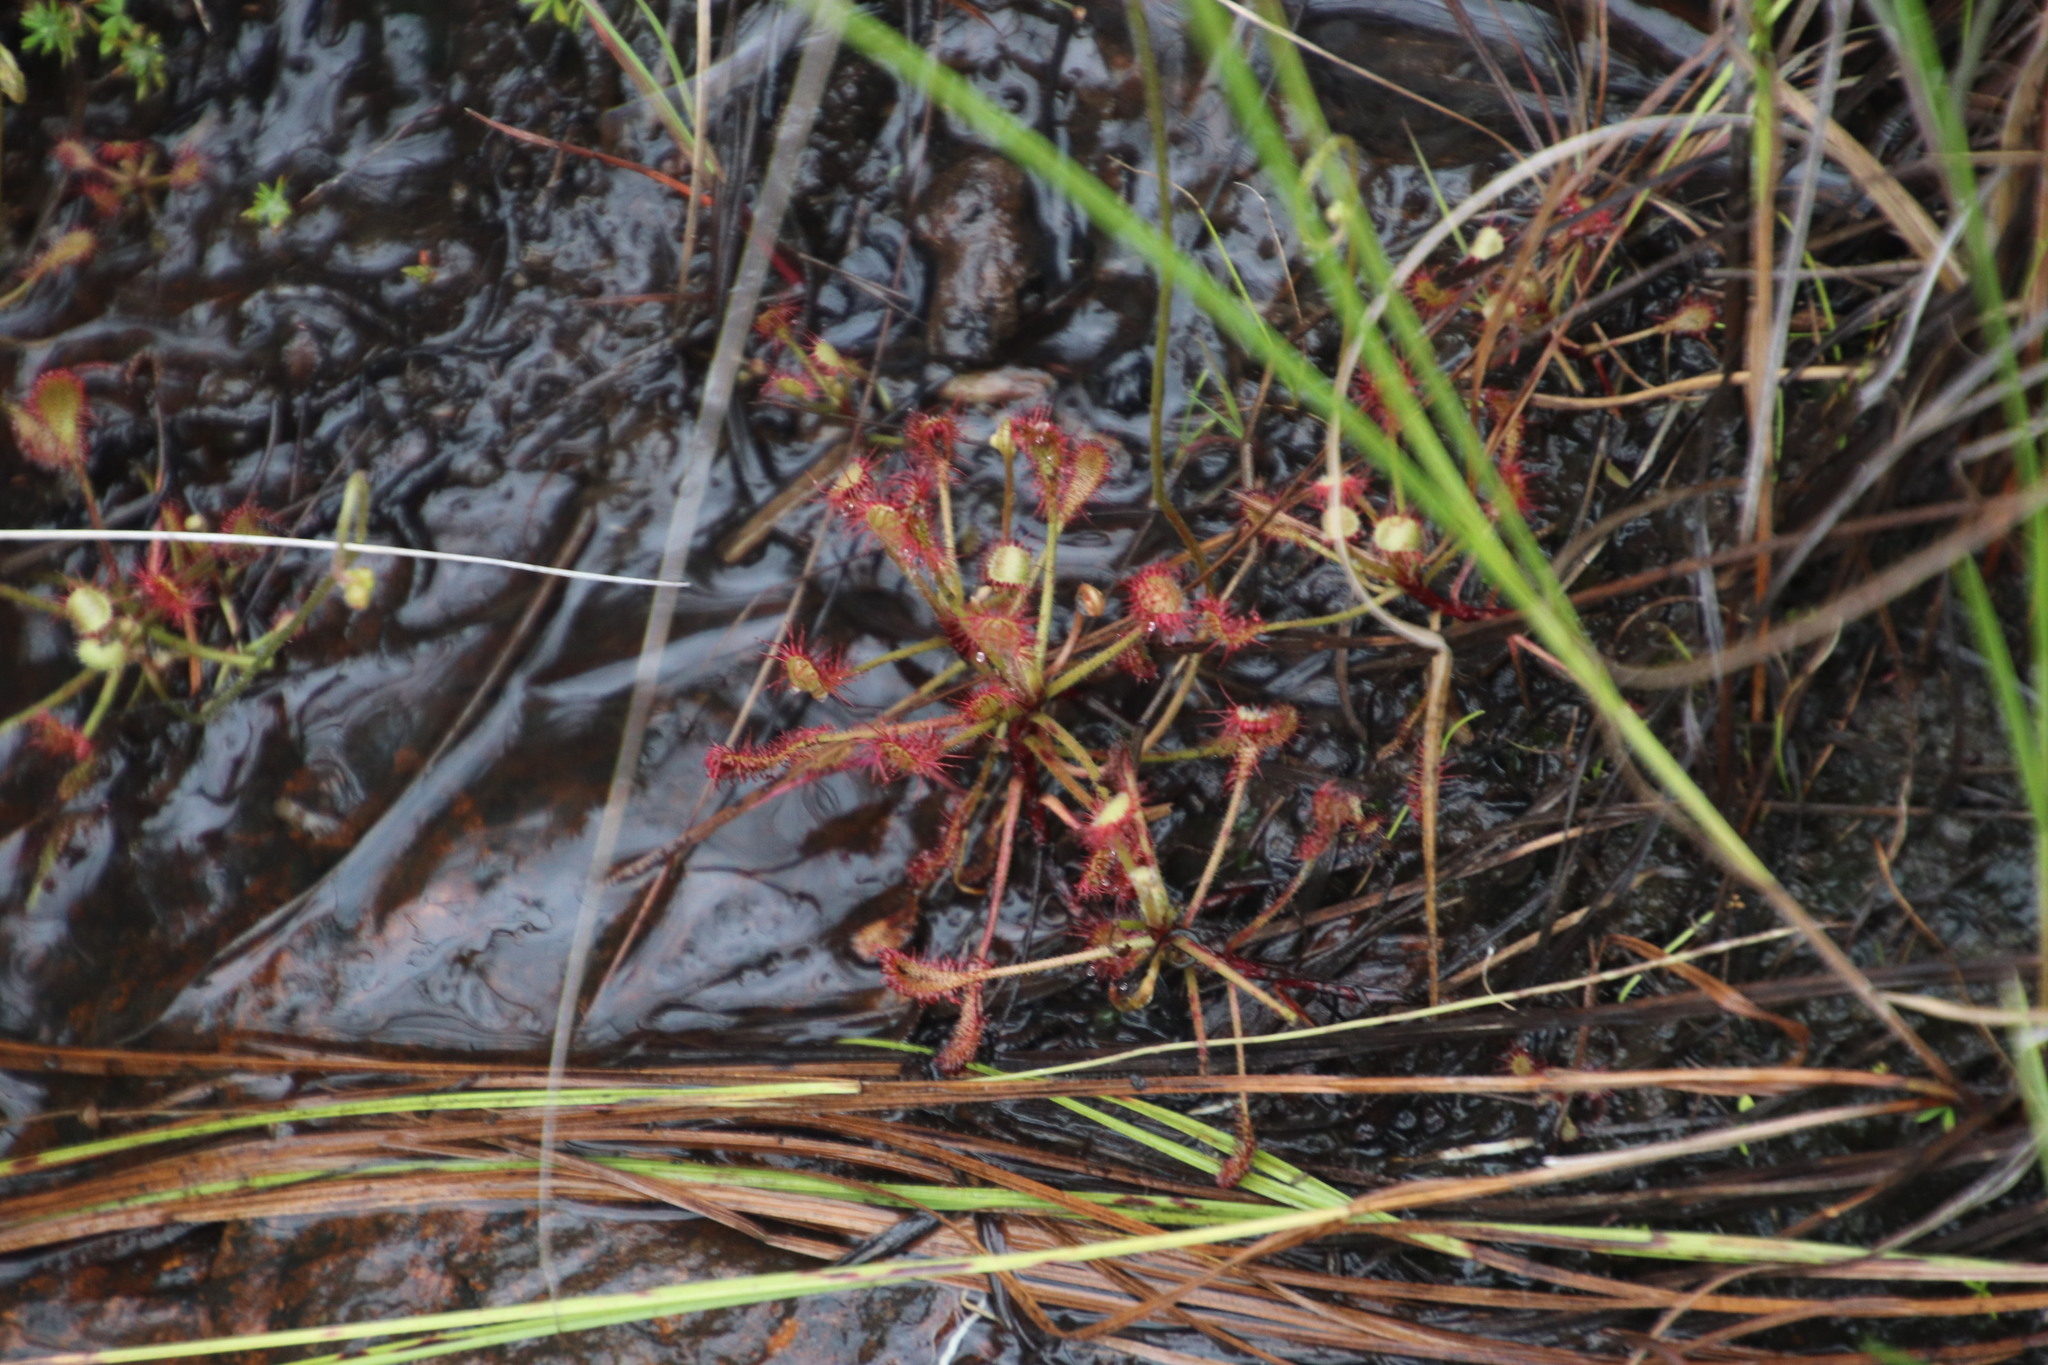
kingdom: Plantae
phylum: Tracheophyta
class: Magnoliopsida
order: Caryophyllales
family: Droseraceae
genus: Drosera
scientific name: Drosera madagascariensis
